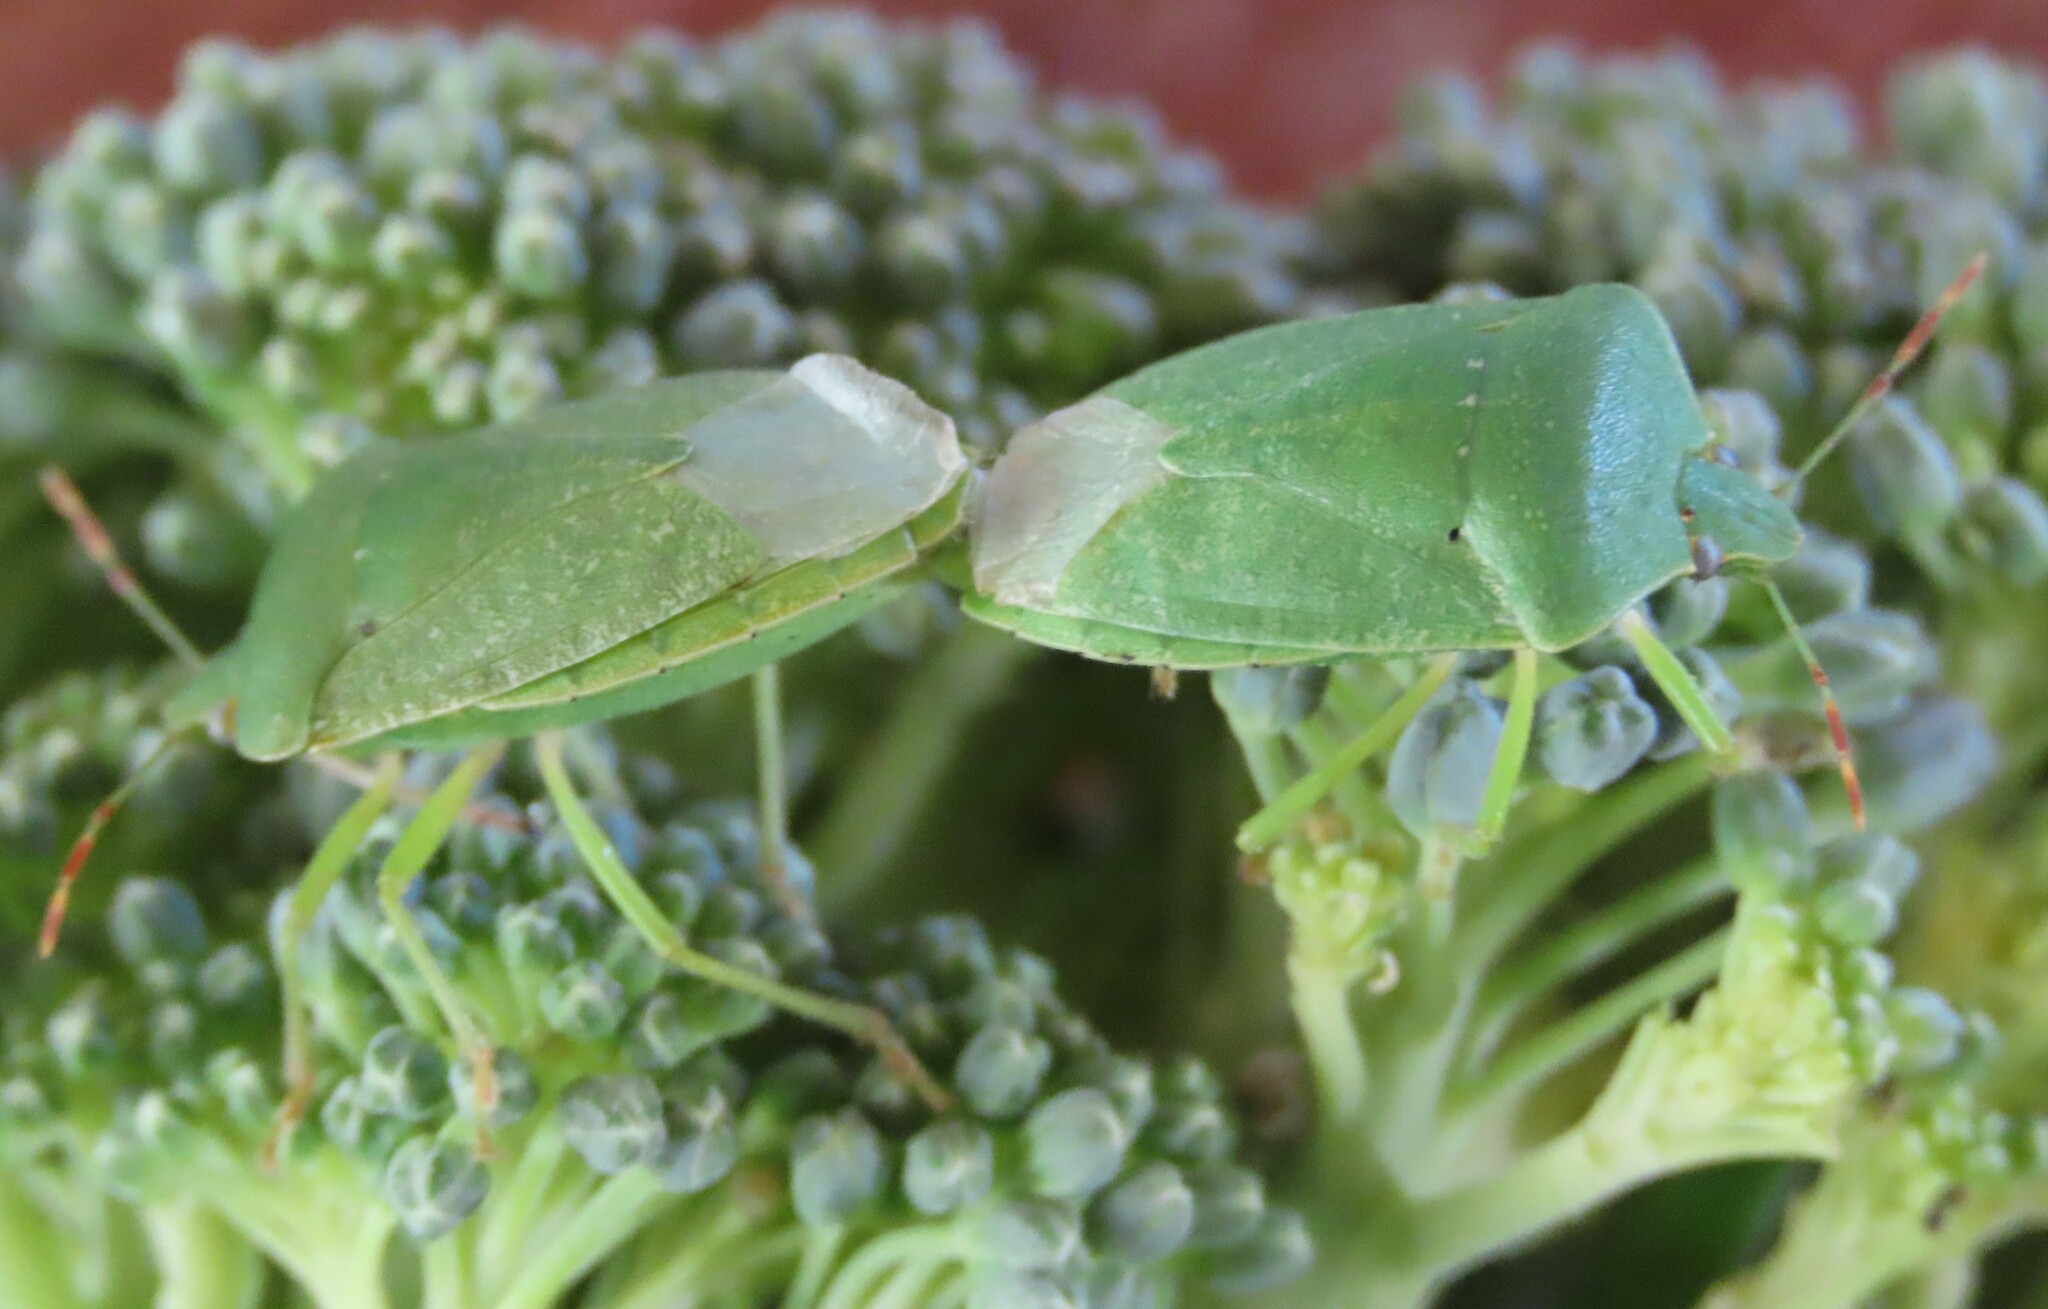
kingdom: Animalia
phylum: Arthropoda
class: Insecta
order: Hemiptera
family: Pentatomidae
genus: Nezara
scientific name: Nezara viridula
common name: Southern green stink bug
